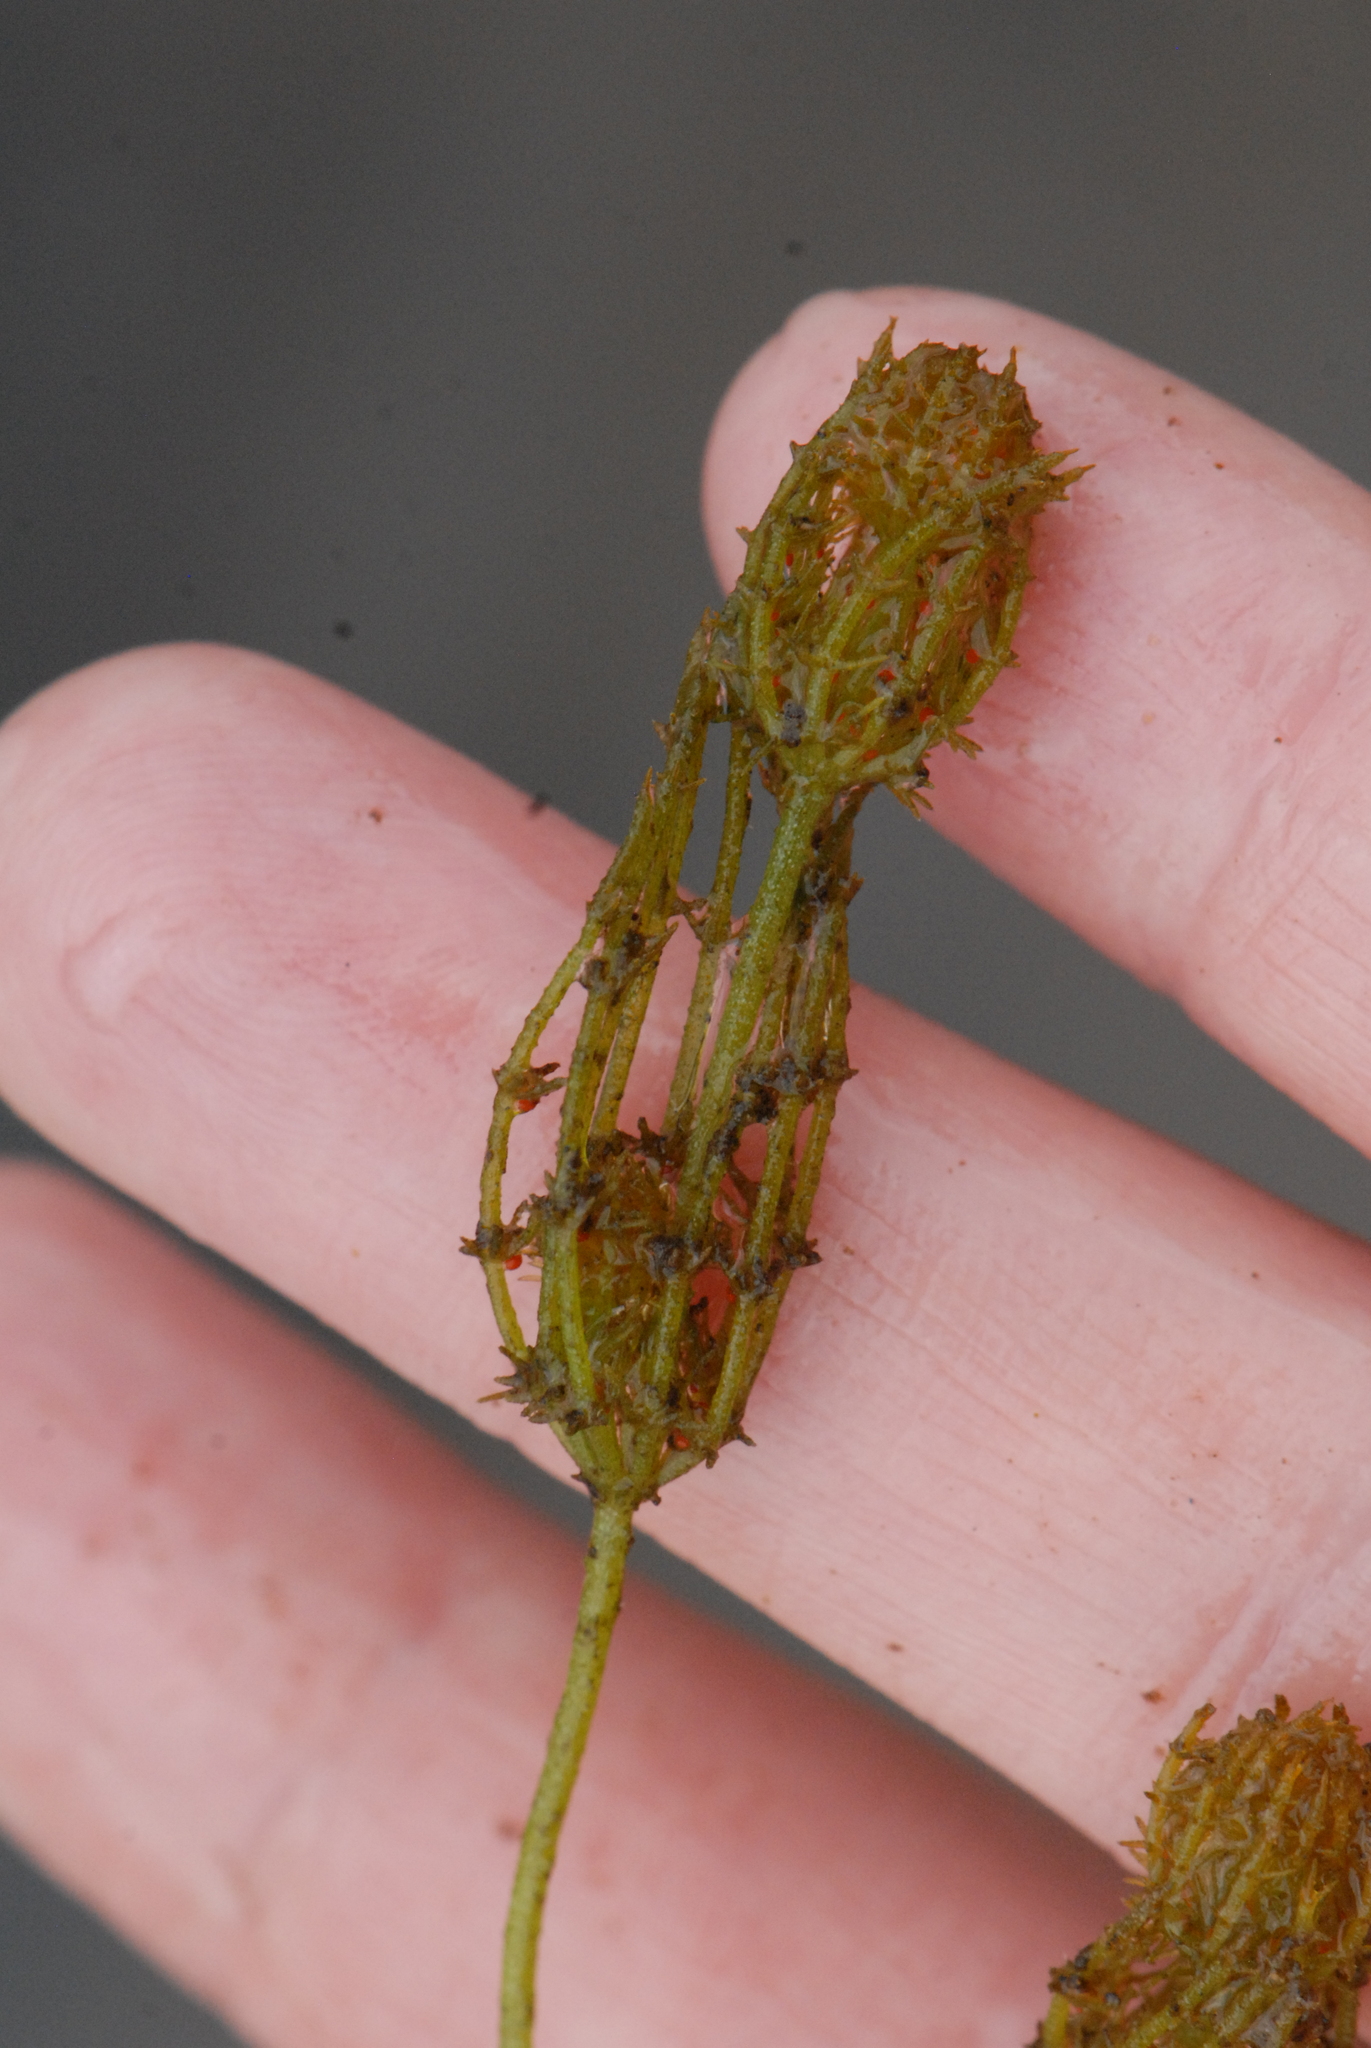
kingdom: Plantae
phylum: Charophyta
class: Charophyceae
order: Charales
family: Characeae
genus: Chara
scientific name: Chara
